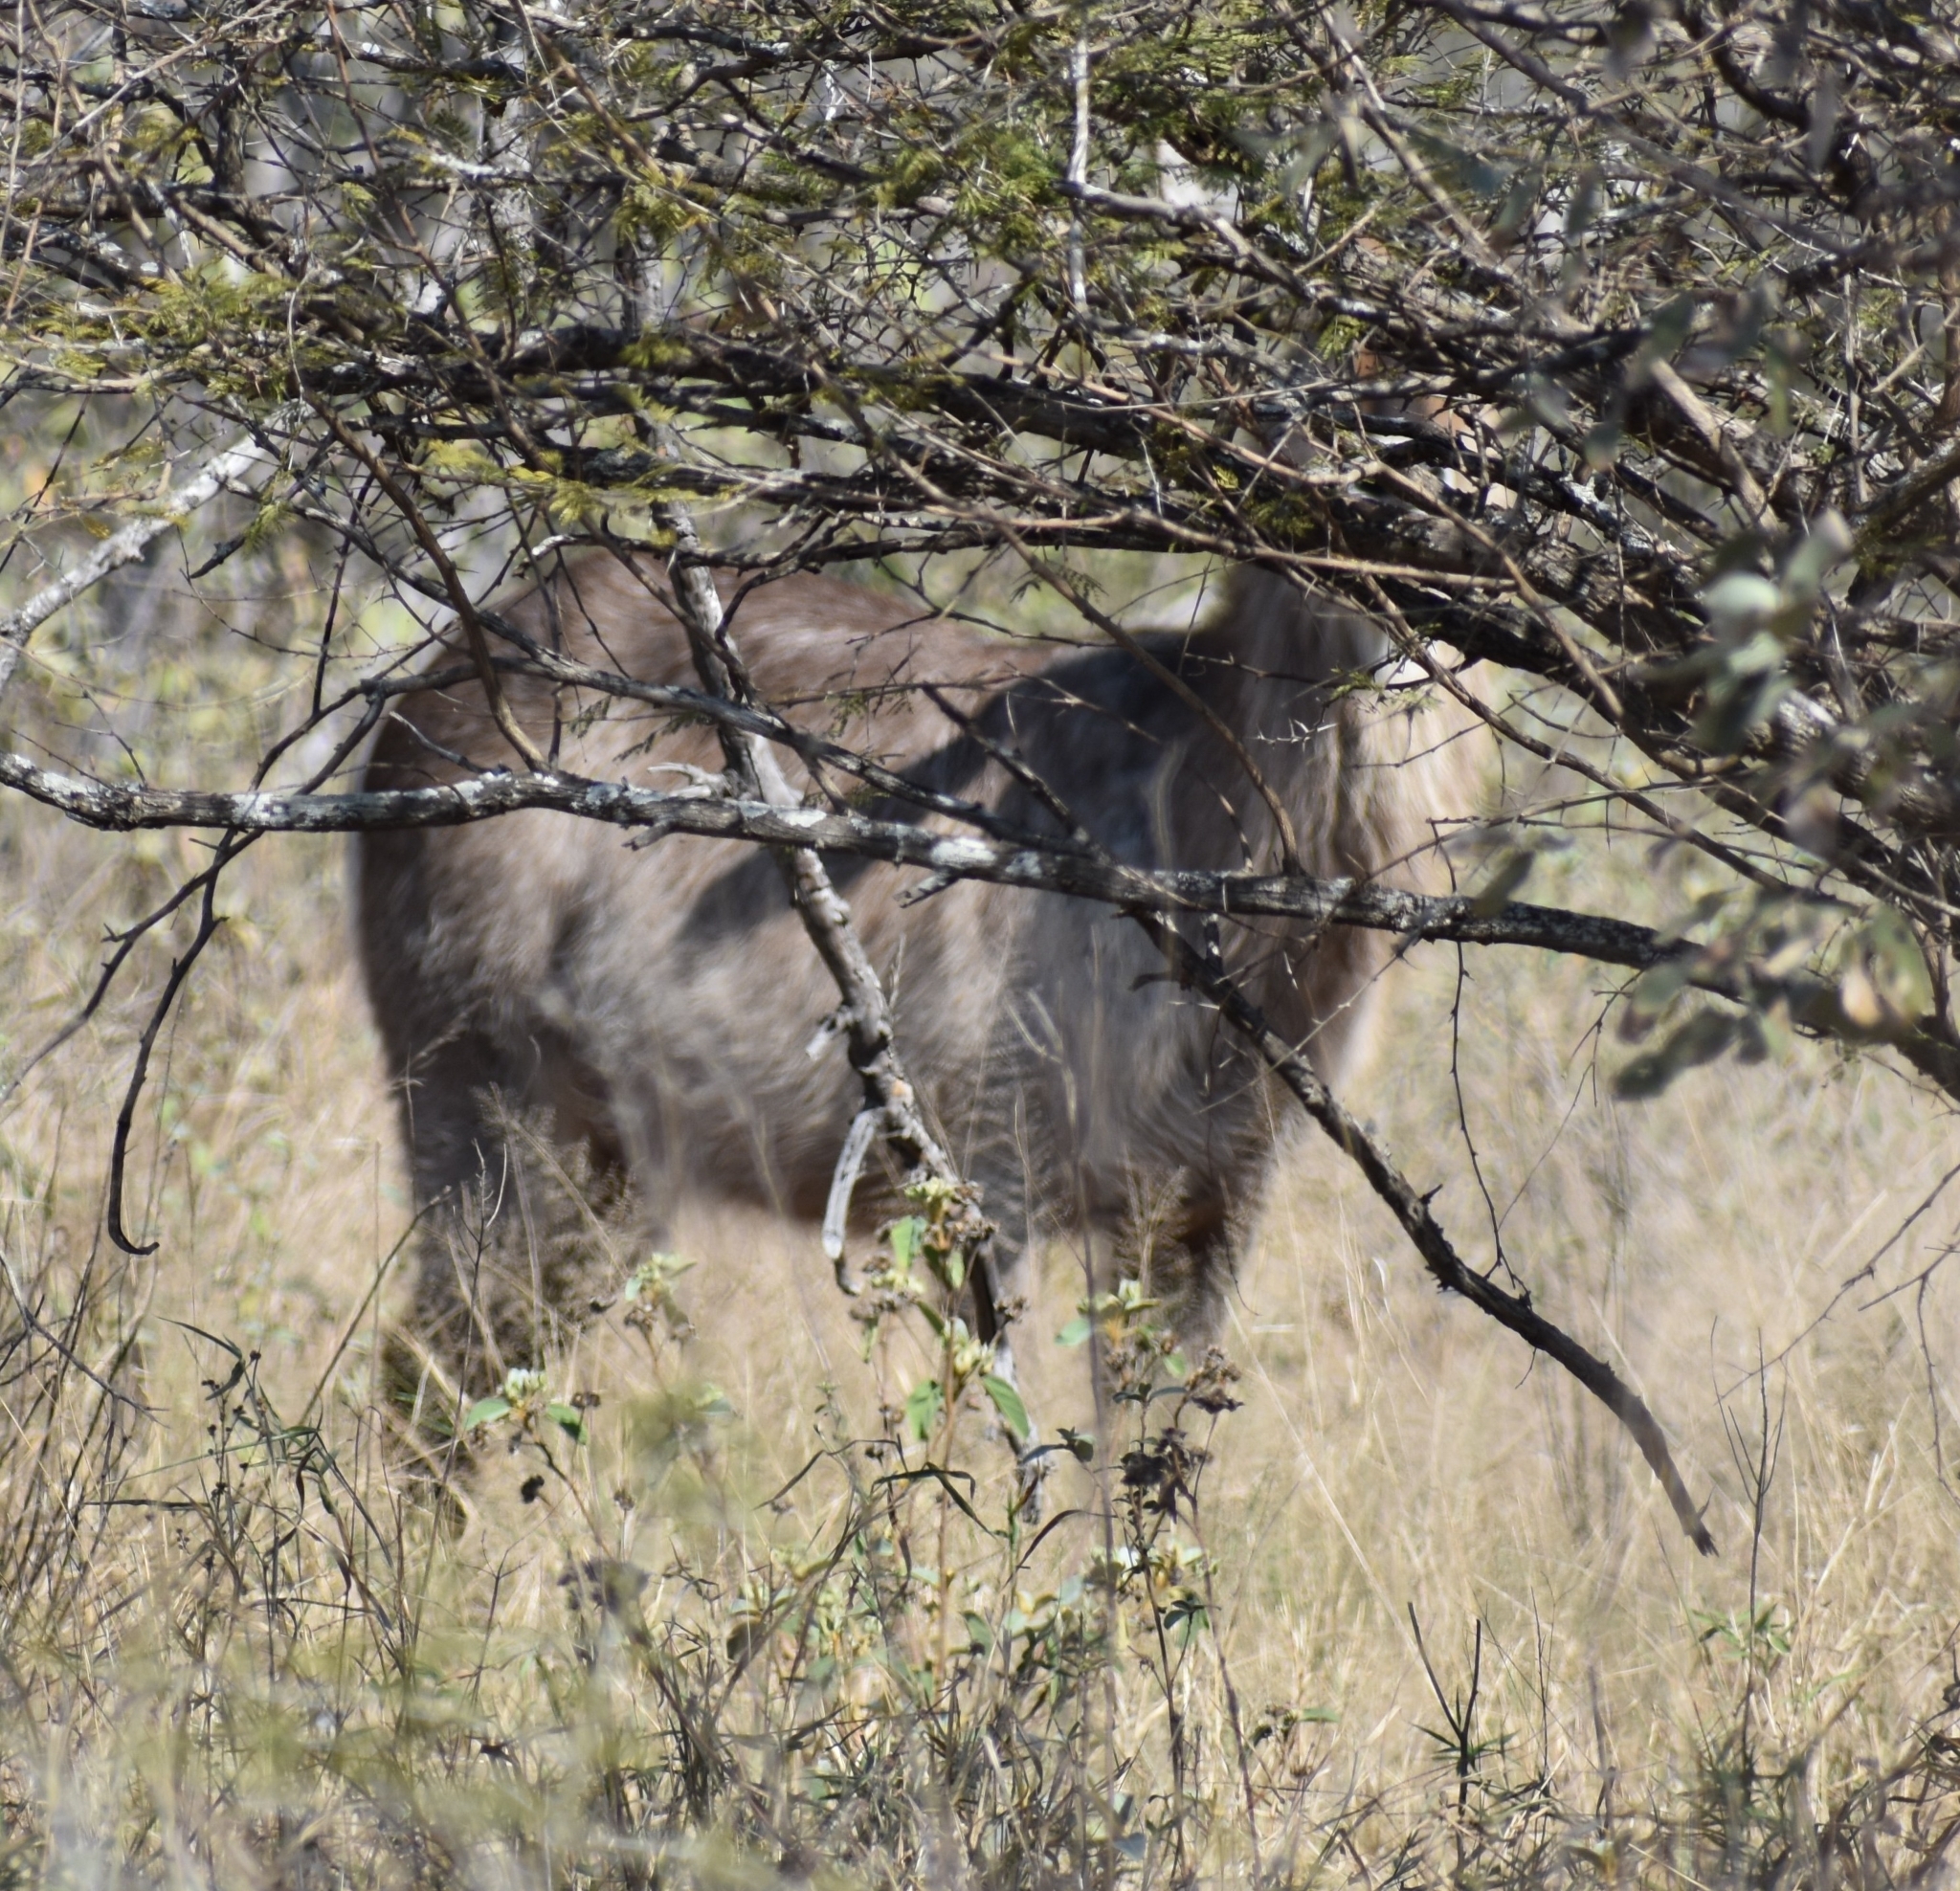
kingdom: Animalia
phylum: Chordata
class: Mammalia
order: Artiodactyla
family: Bovidae
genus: Kobus
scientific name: Kobus ellipsiprymnus
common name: Waterbuck
